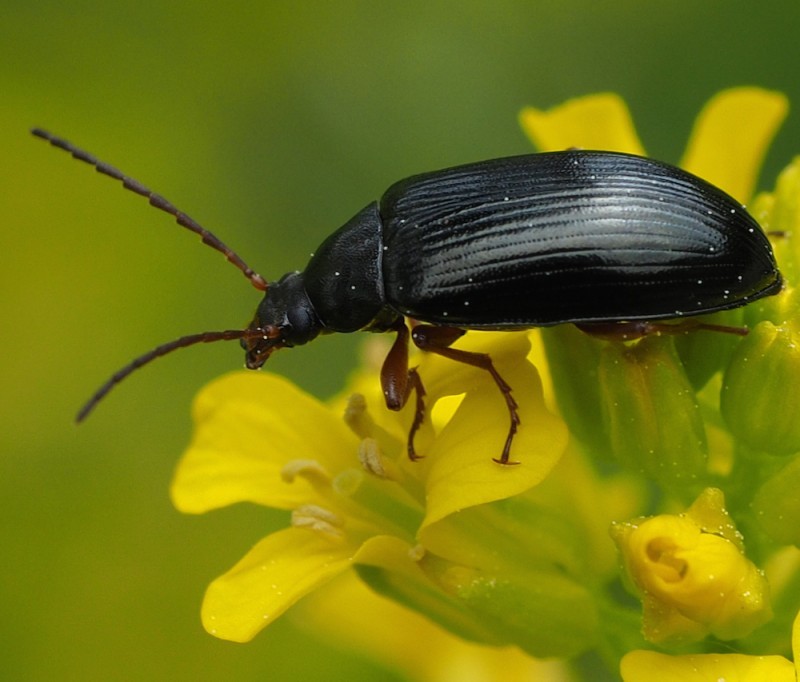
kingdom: Animalia
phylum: Arthropoda
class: Insecta
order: Coleoptera
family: Tenebrionidae
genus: Gonodera
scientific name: Gonodera luperus
